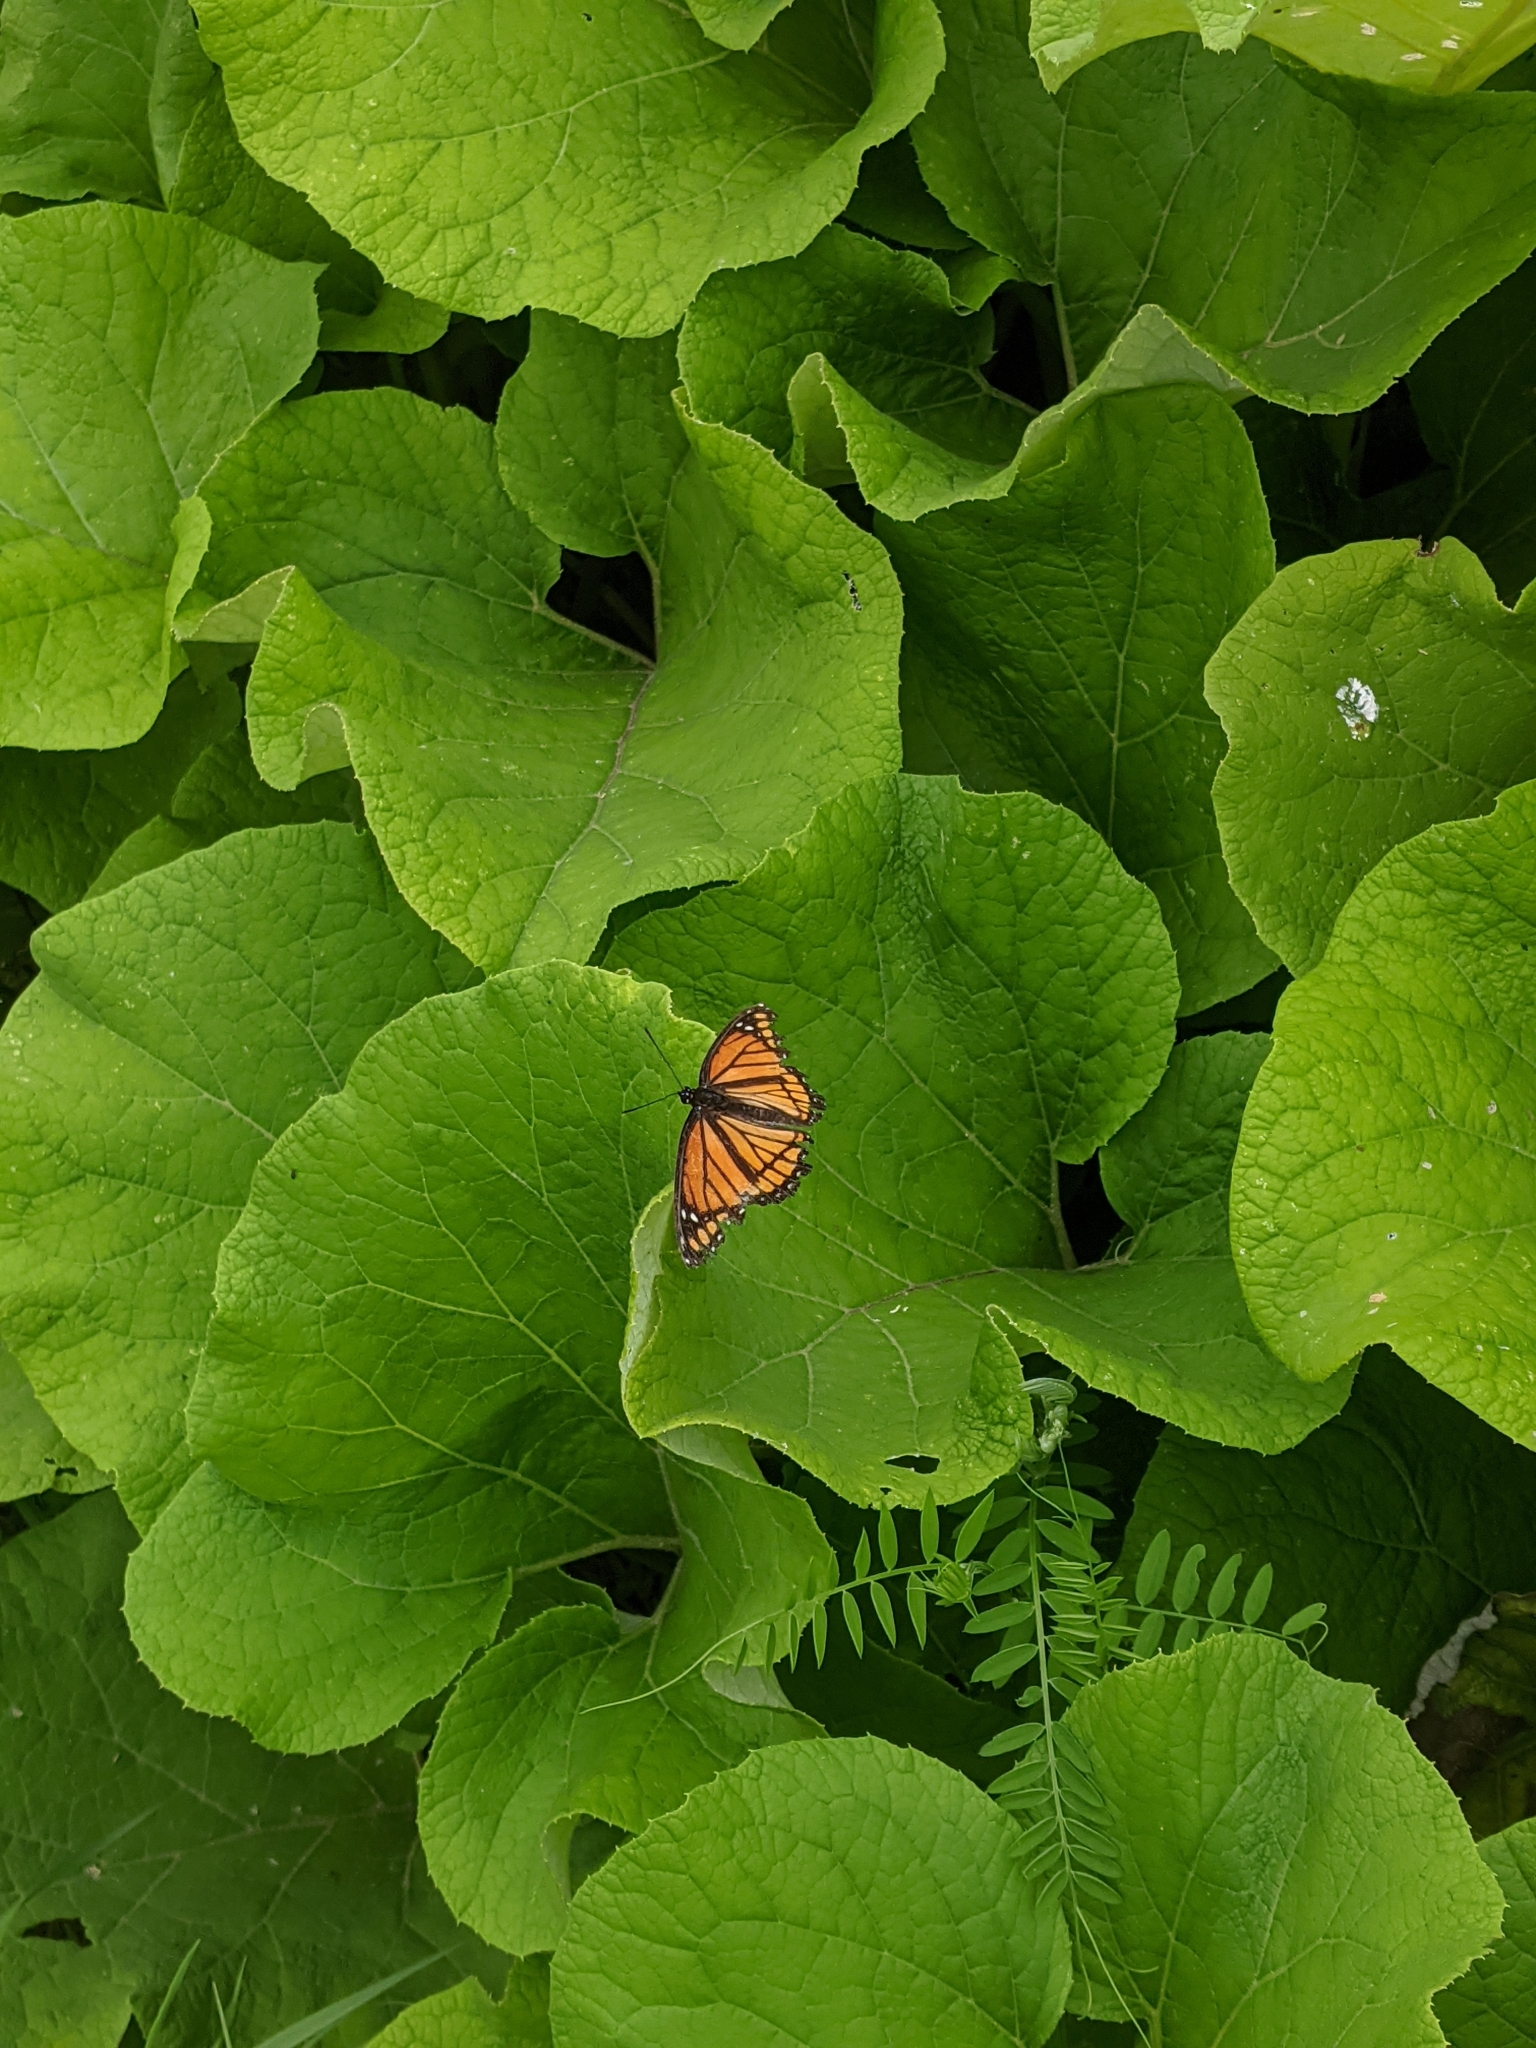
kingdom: Animalia
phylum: Arthropoda
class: Insecta
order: Lepidoptera
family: Nymphalidae
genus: Limenitis
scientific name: Limenitis archippus
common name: Viceroy
